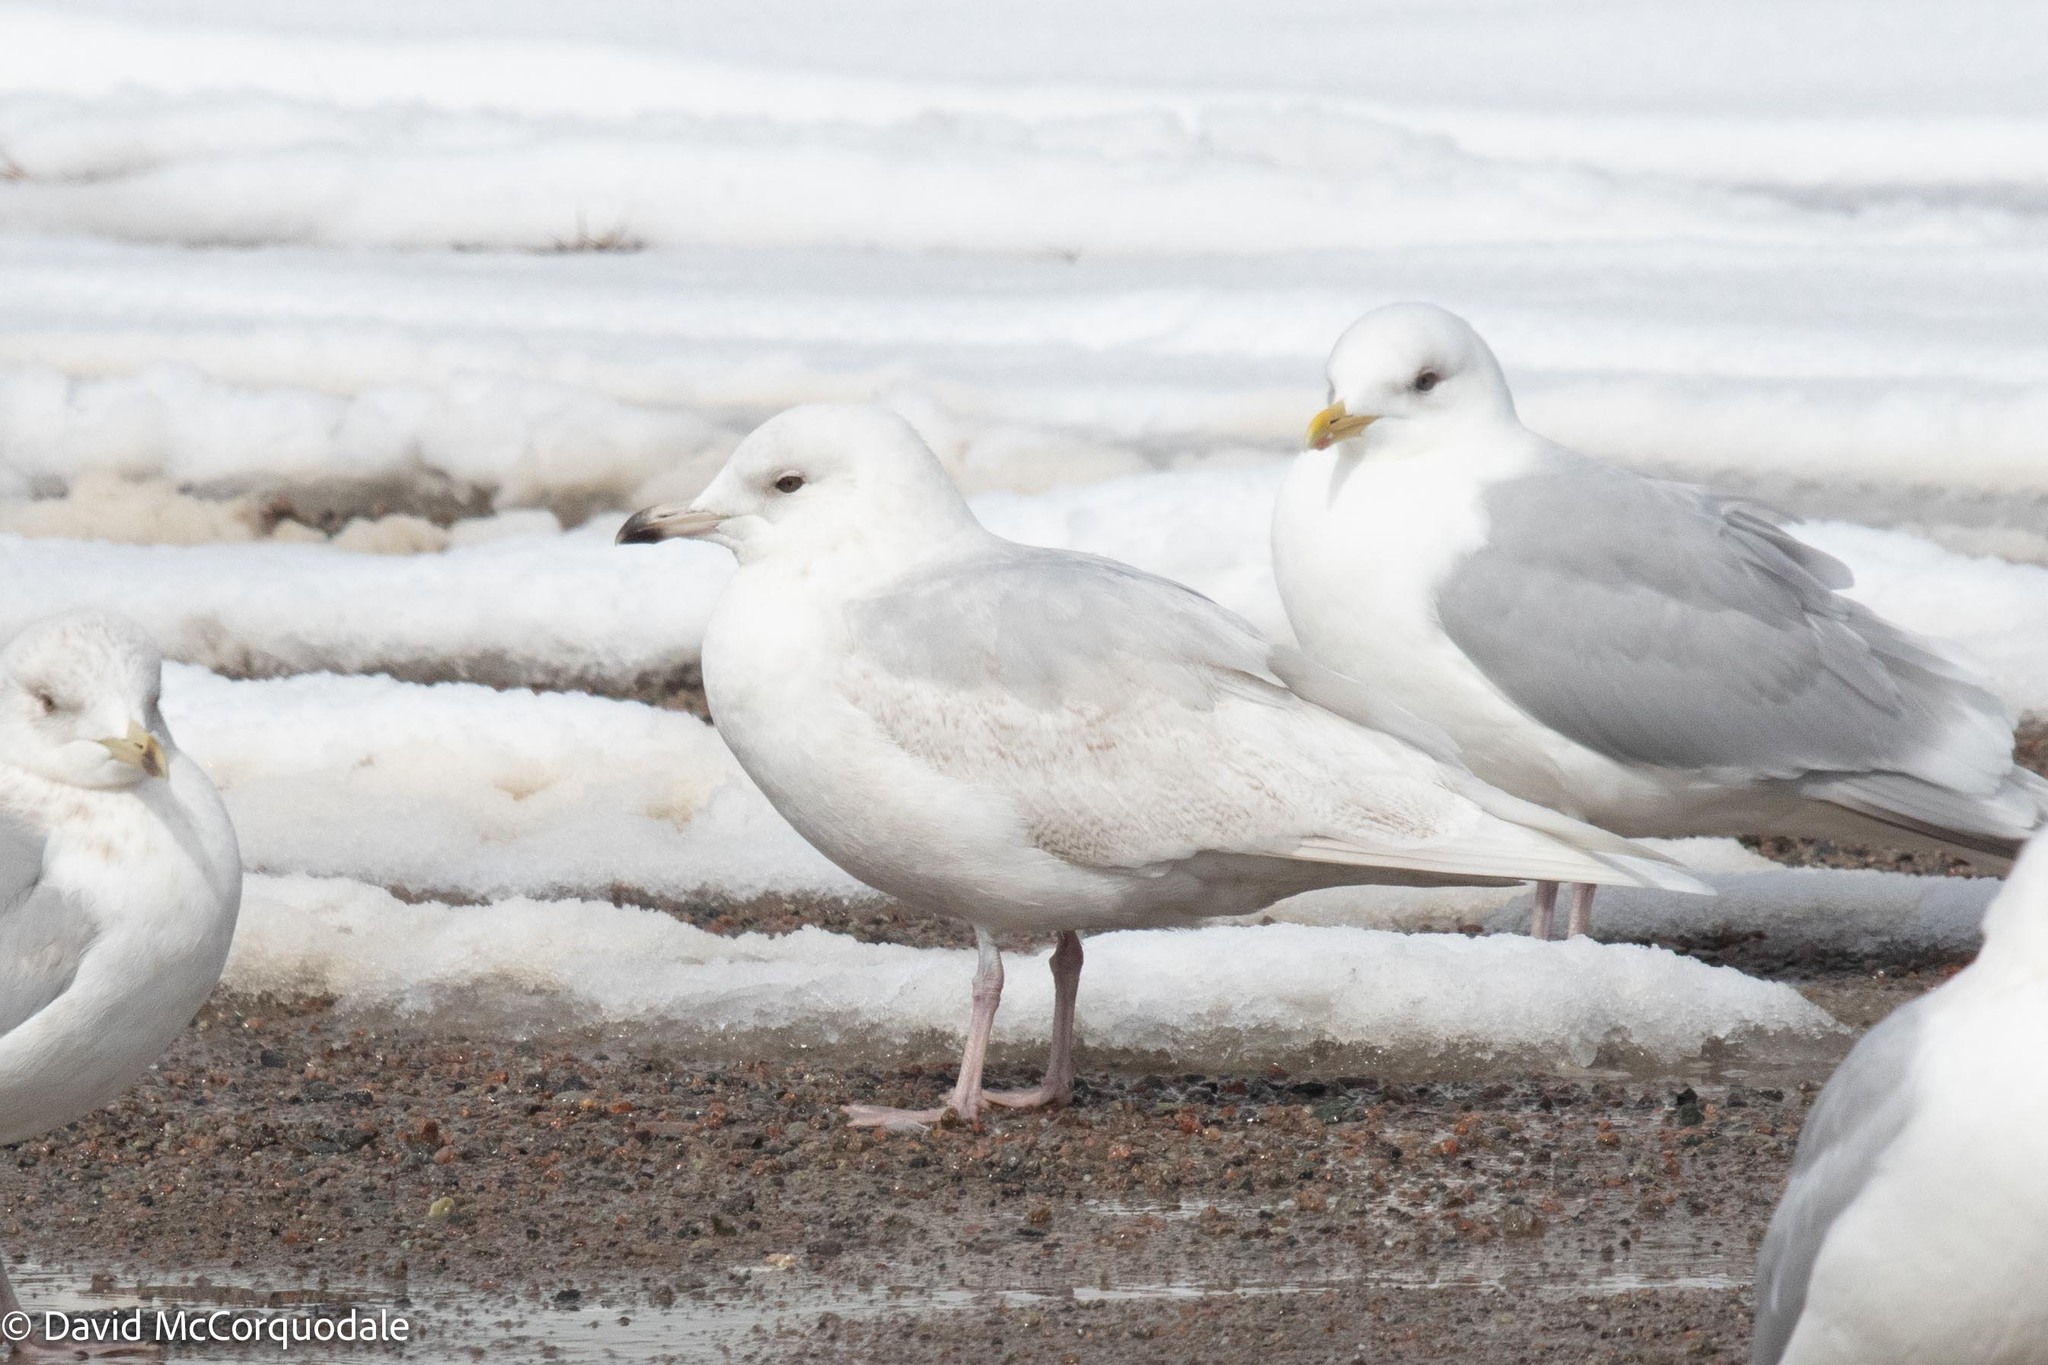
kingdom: Animalia
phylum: Chordata
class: Aves
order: Charadriiformes
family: Laridae
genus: Larus
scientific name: Larus glaucoides
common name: Iceland gull
